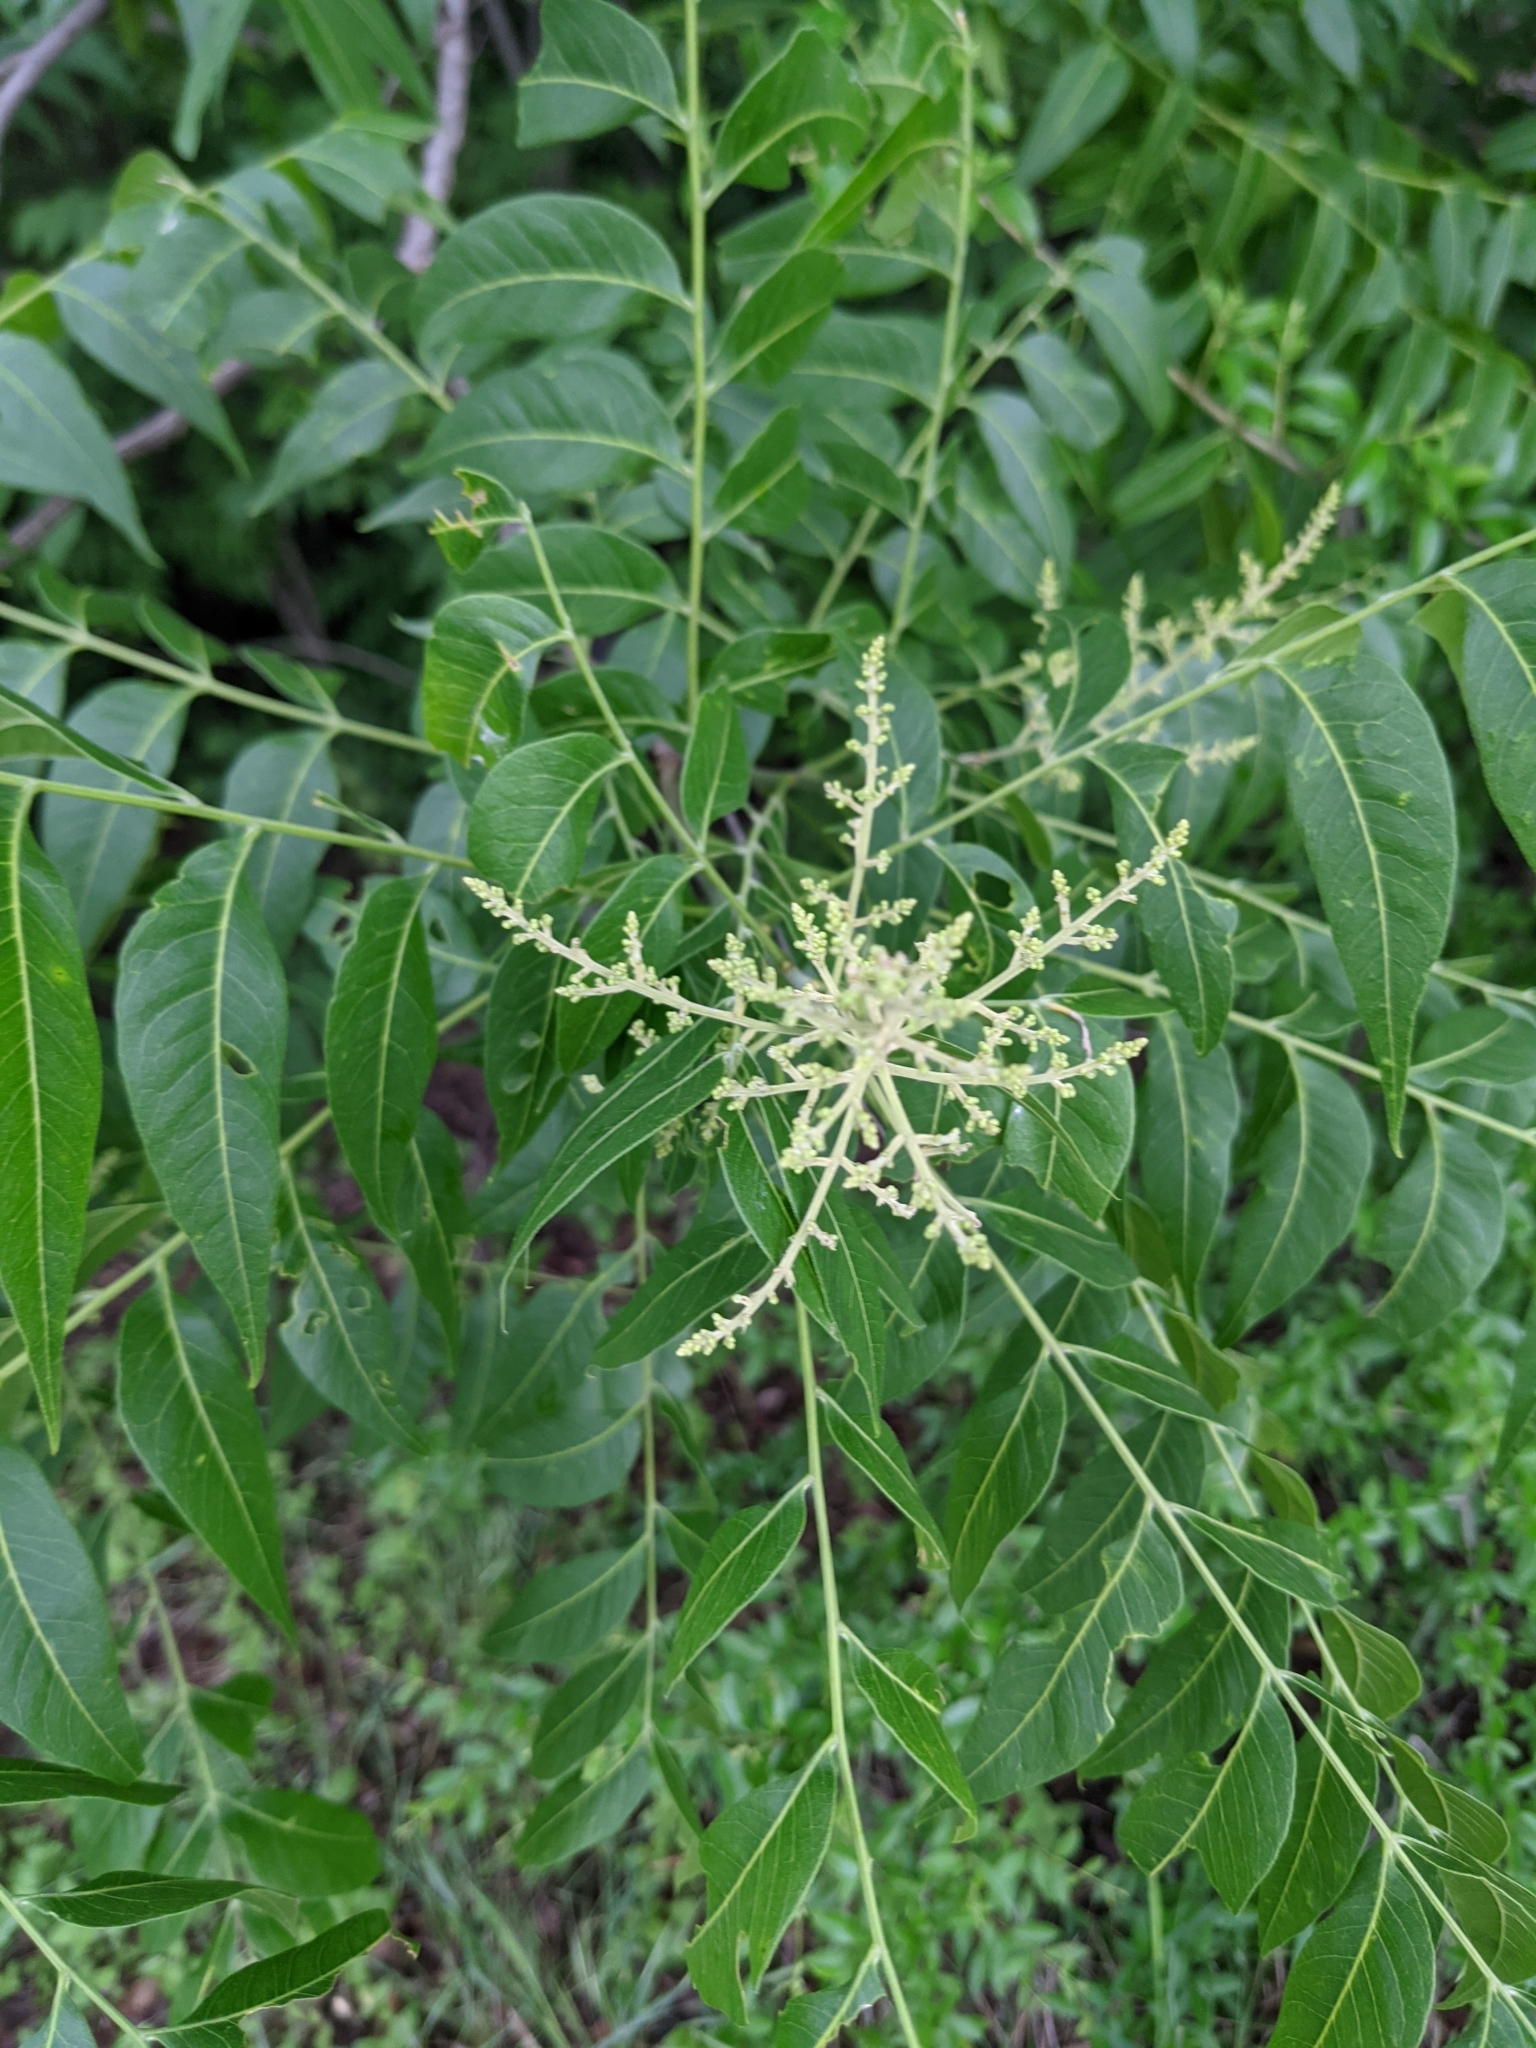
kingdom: Plantae
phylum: Tracheophyta
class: Magnoliopsida
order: Sapindales
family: Sapindaceae
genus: Sapindus
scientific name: Sapindus drummondii
